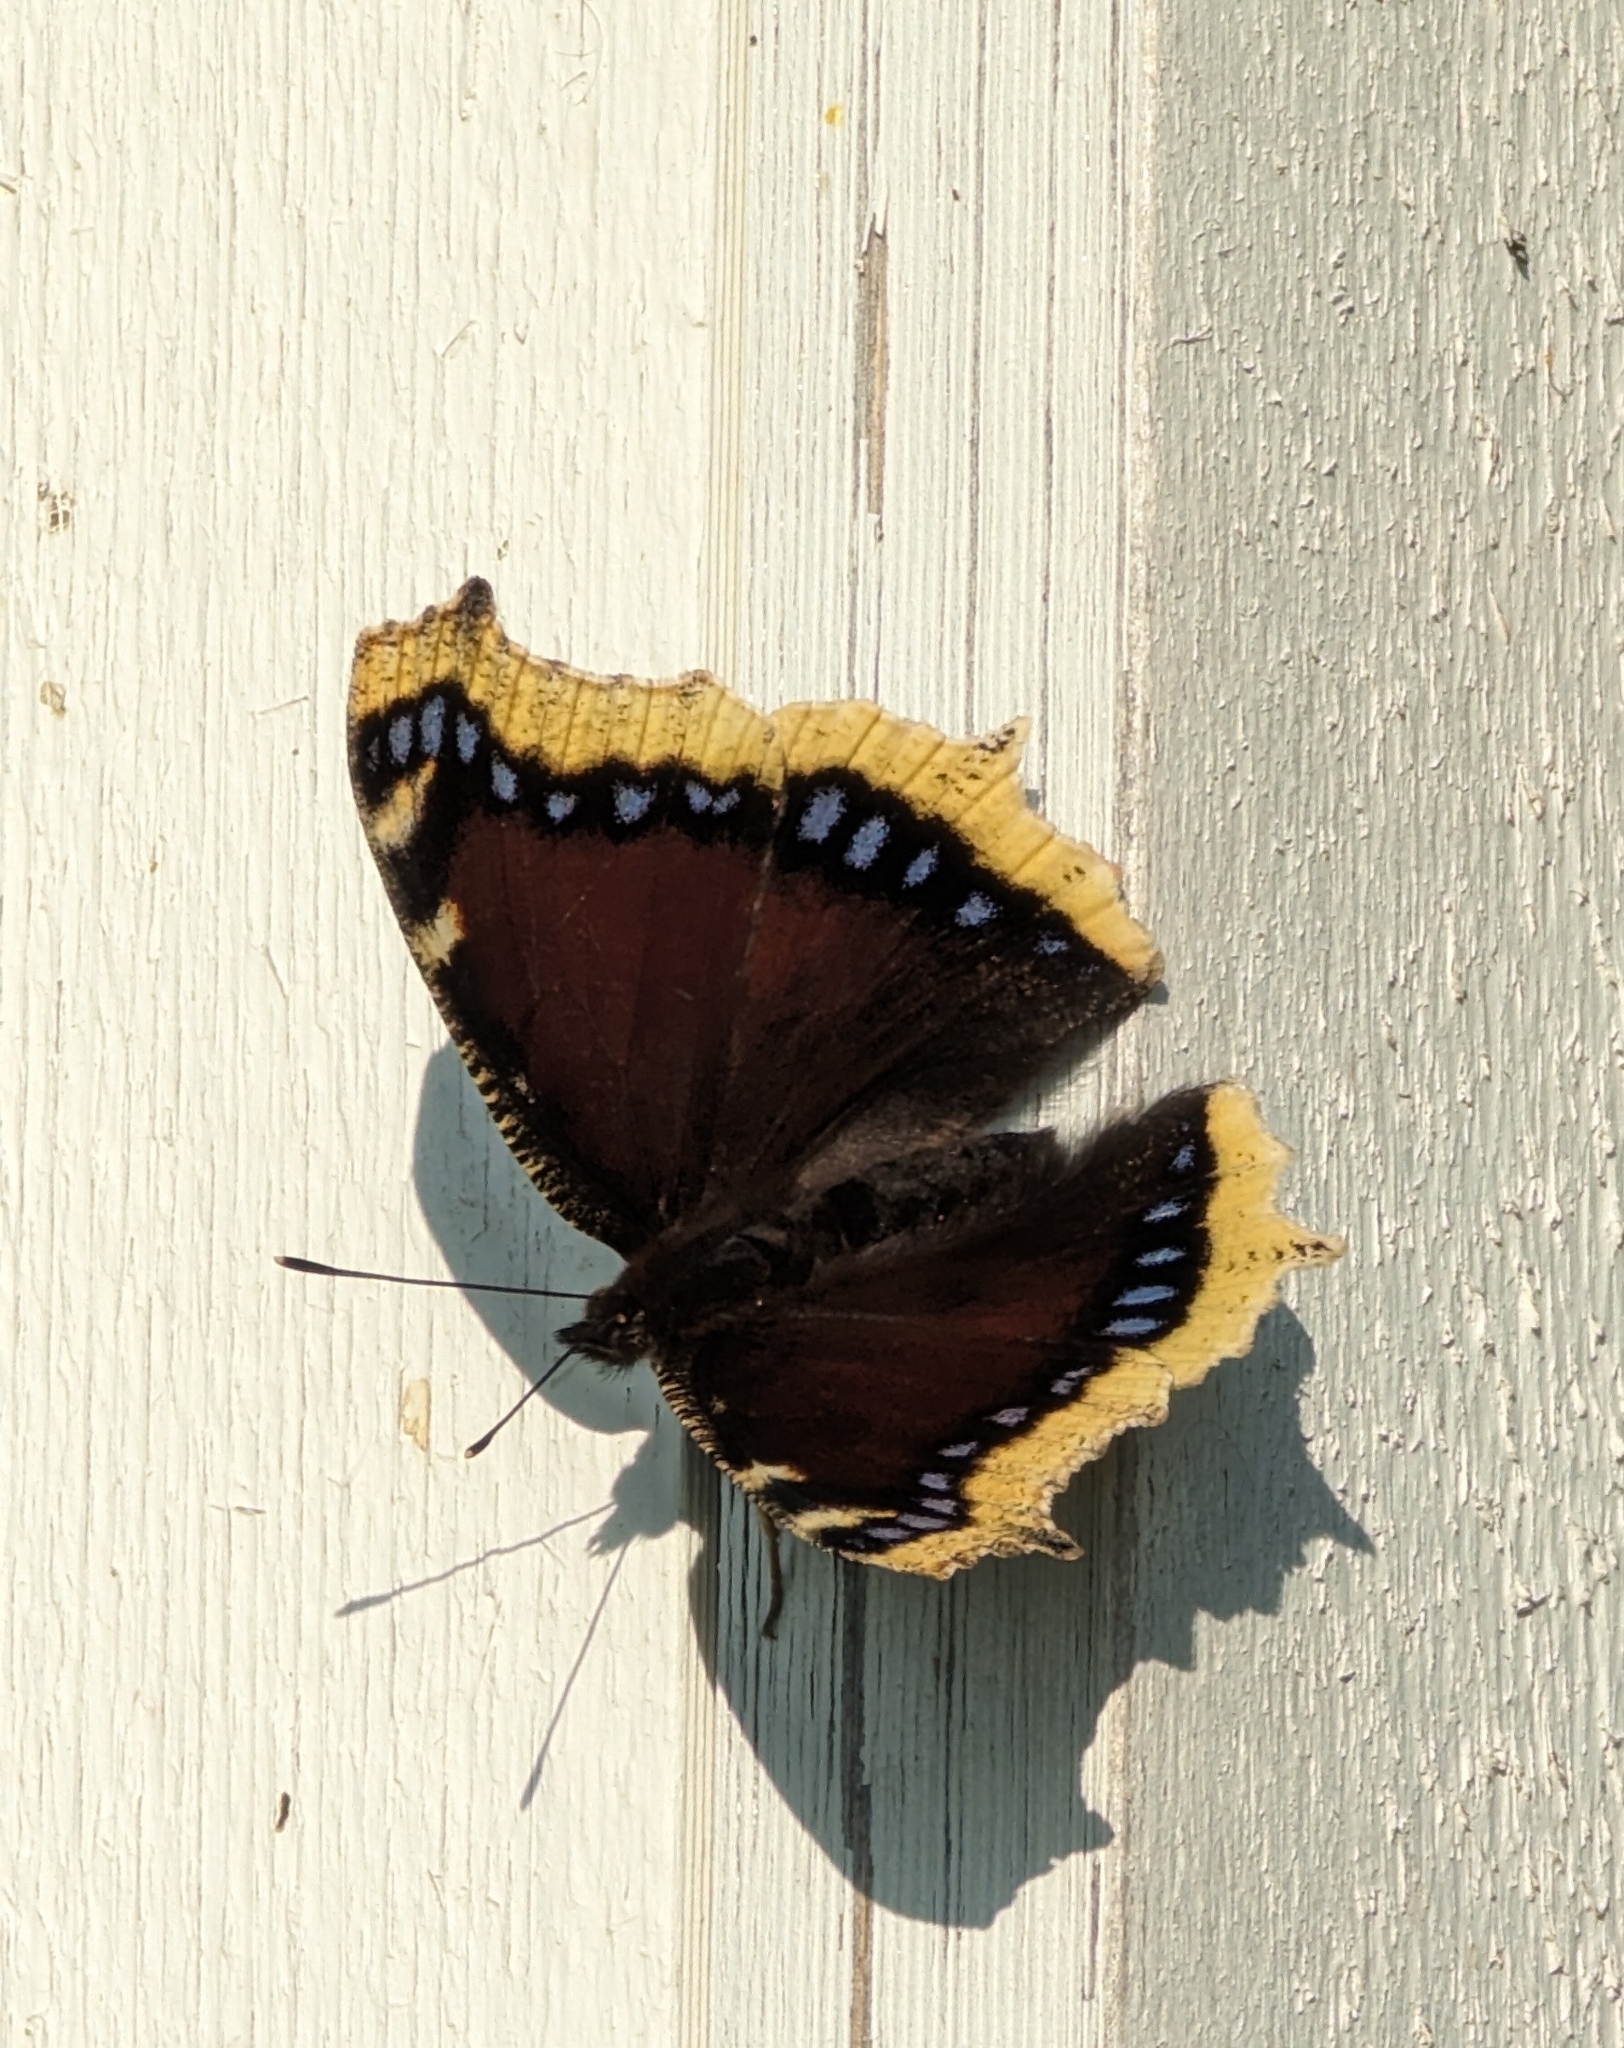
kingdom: Animalia
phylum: Arthropoda
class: Insecta
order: Lepidoptera
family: Nymphalidae
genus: Nymphalis
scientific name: Nymphalis antiopa
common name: Camberwell beauty
